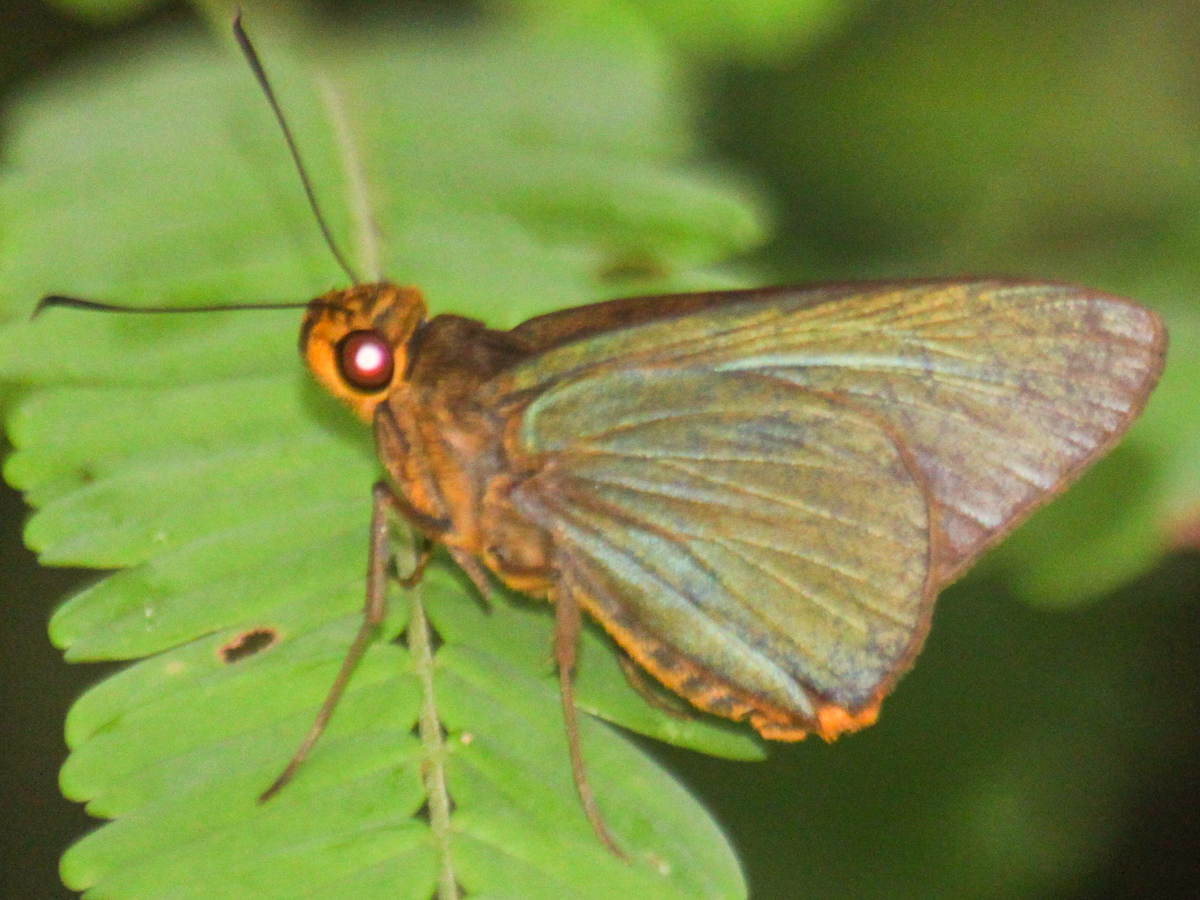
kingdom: Animalia
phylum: Arthropoda
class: Insecta
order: Lepidoptera
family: Hesperiidae
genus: Pirdana
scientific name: Pirdana distanti
